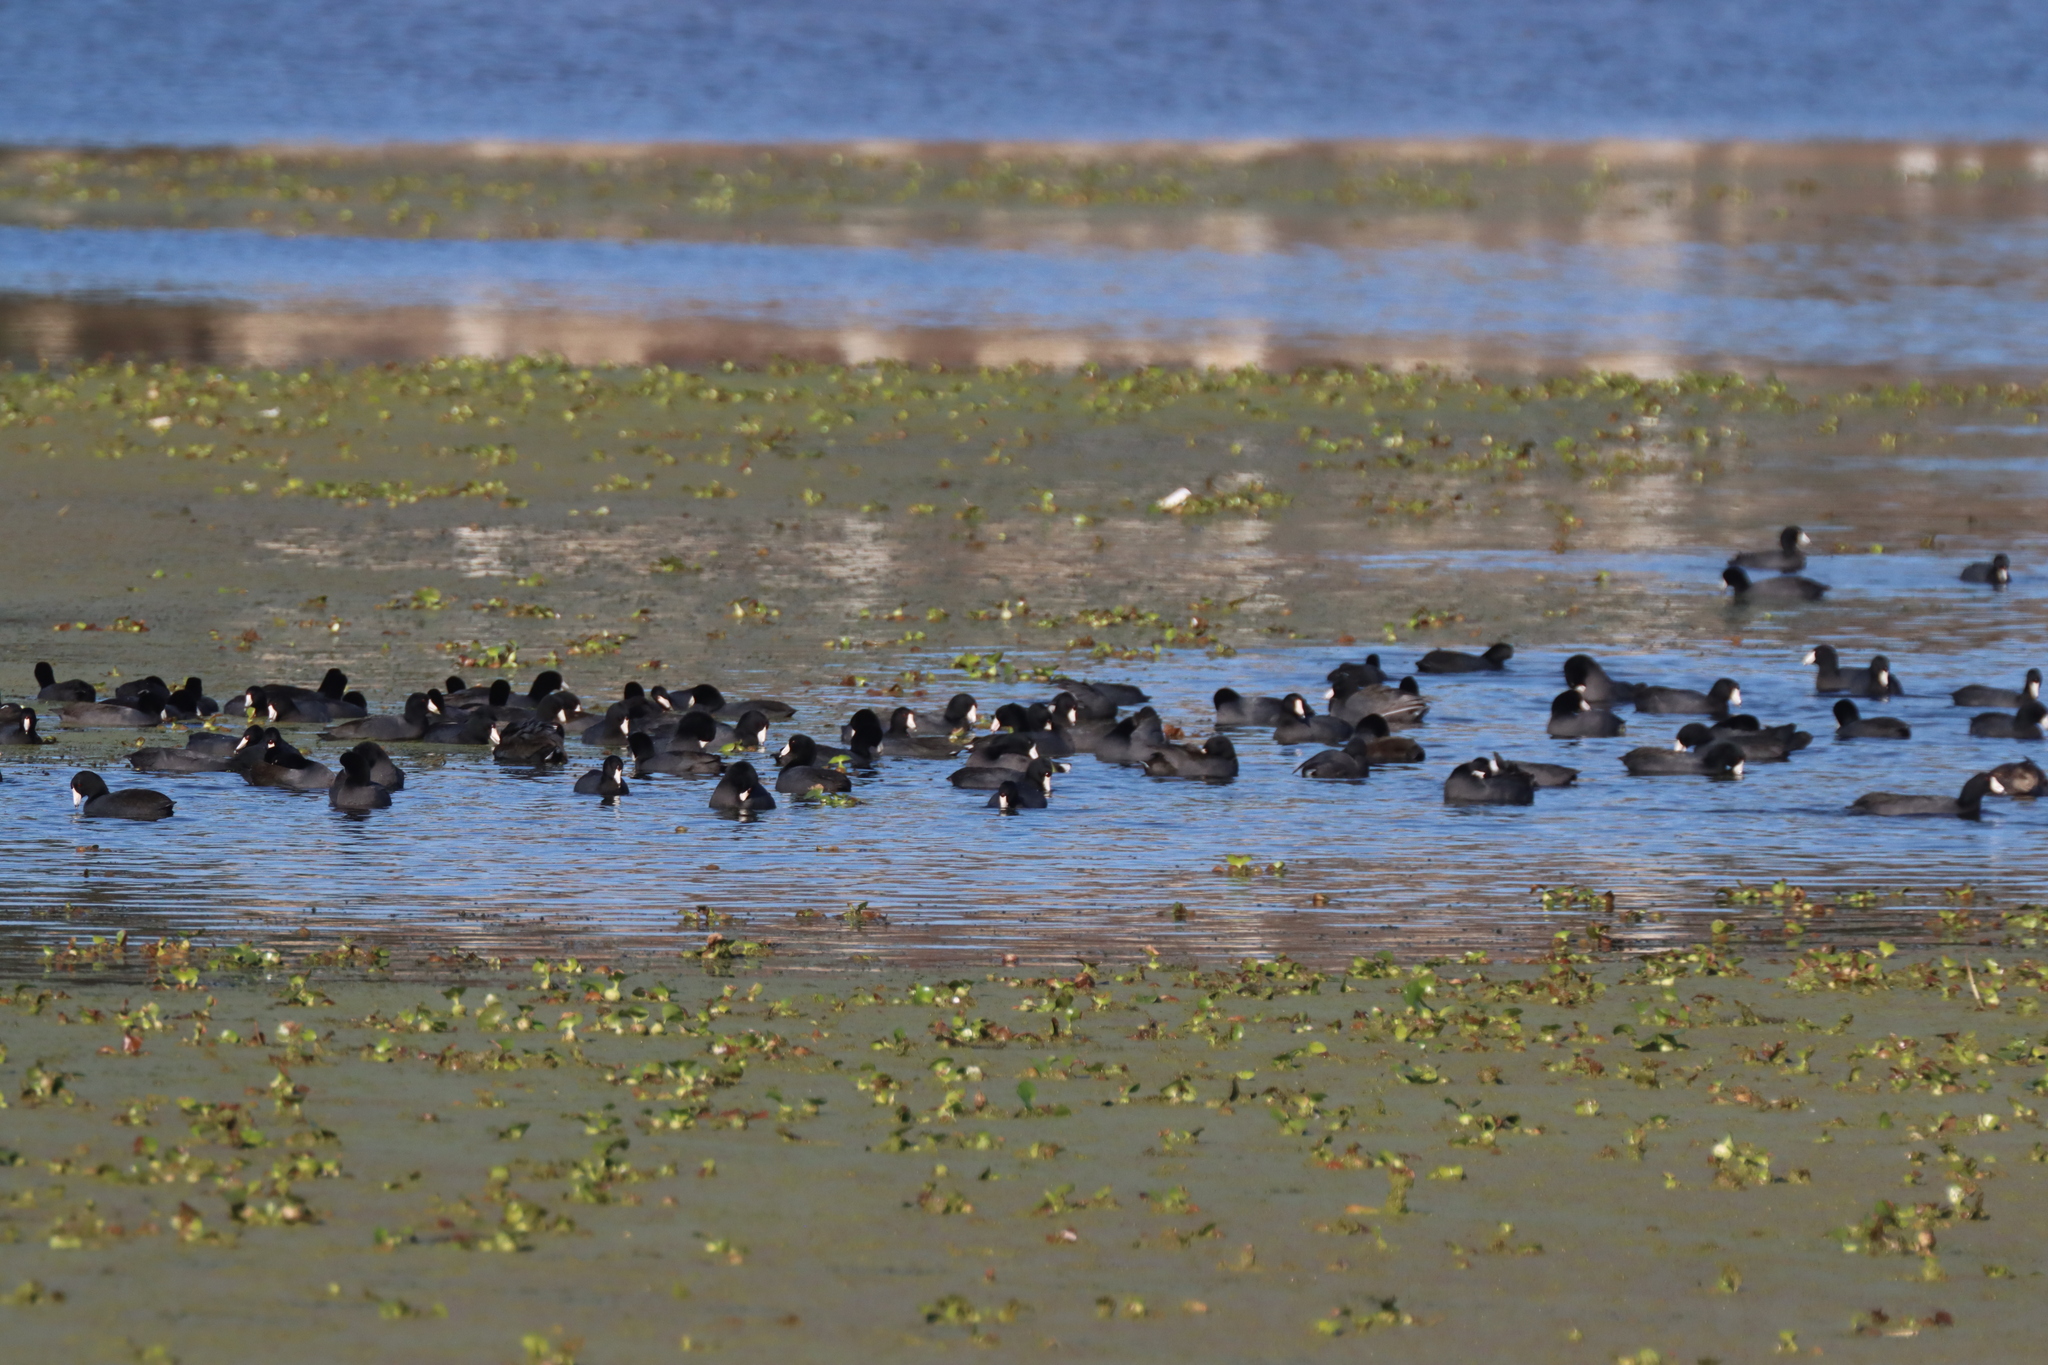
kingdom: Animalia
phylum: Chordata
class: Aves
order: Gruiformes
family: Rallidae
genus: Fulica
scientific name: Fulica americana
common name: American coot
